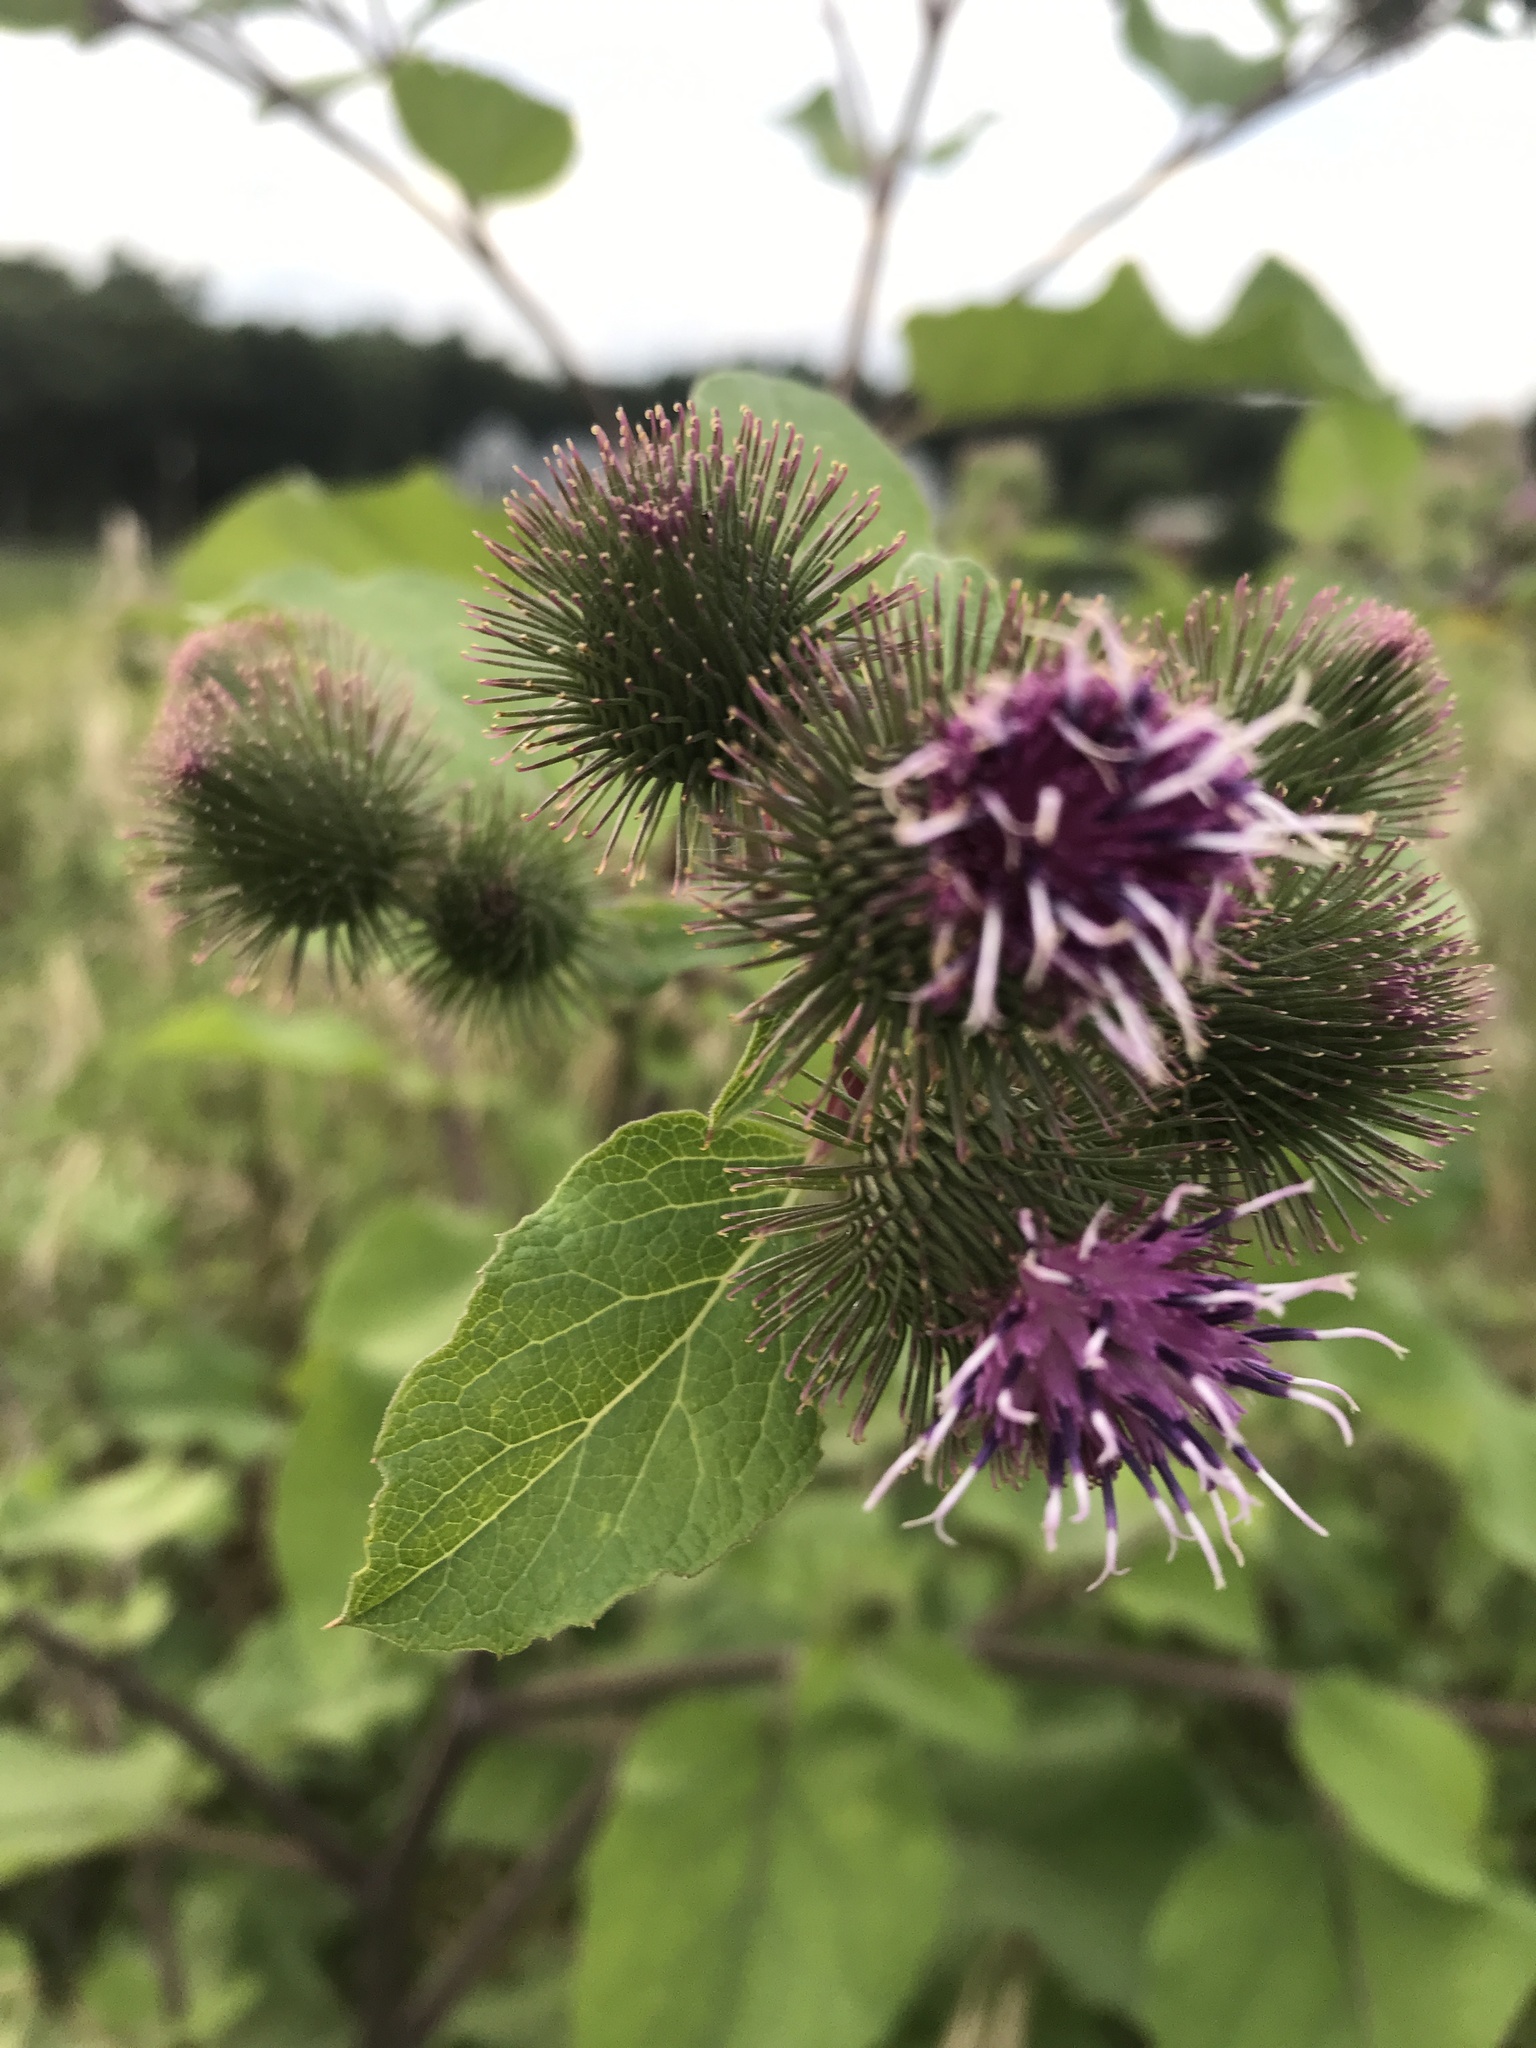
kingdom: Plantae
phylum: Tracheophyta
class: Magnoliopsida
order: Asterales
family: Asteraceae
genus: Arctium
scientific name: Arctium lappa
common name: Greater burdock
